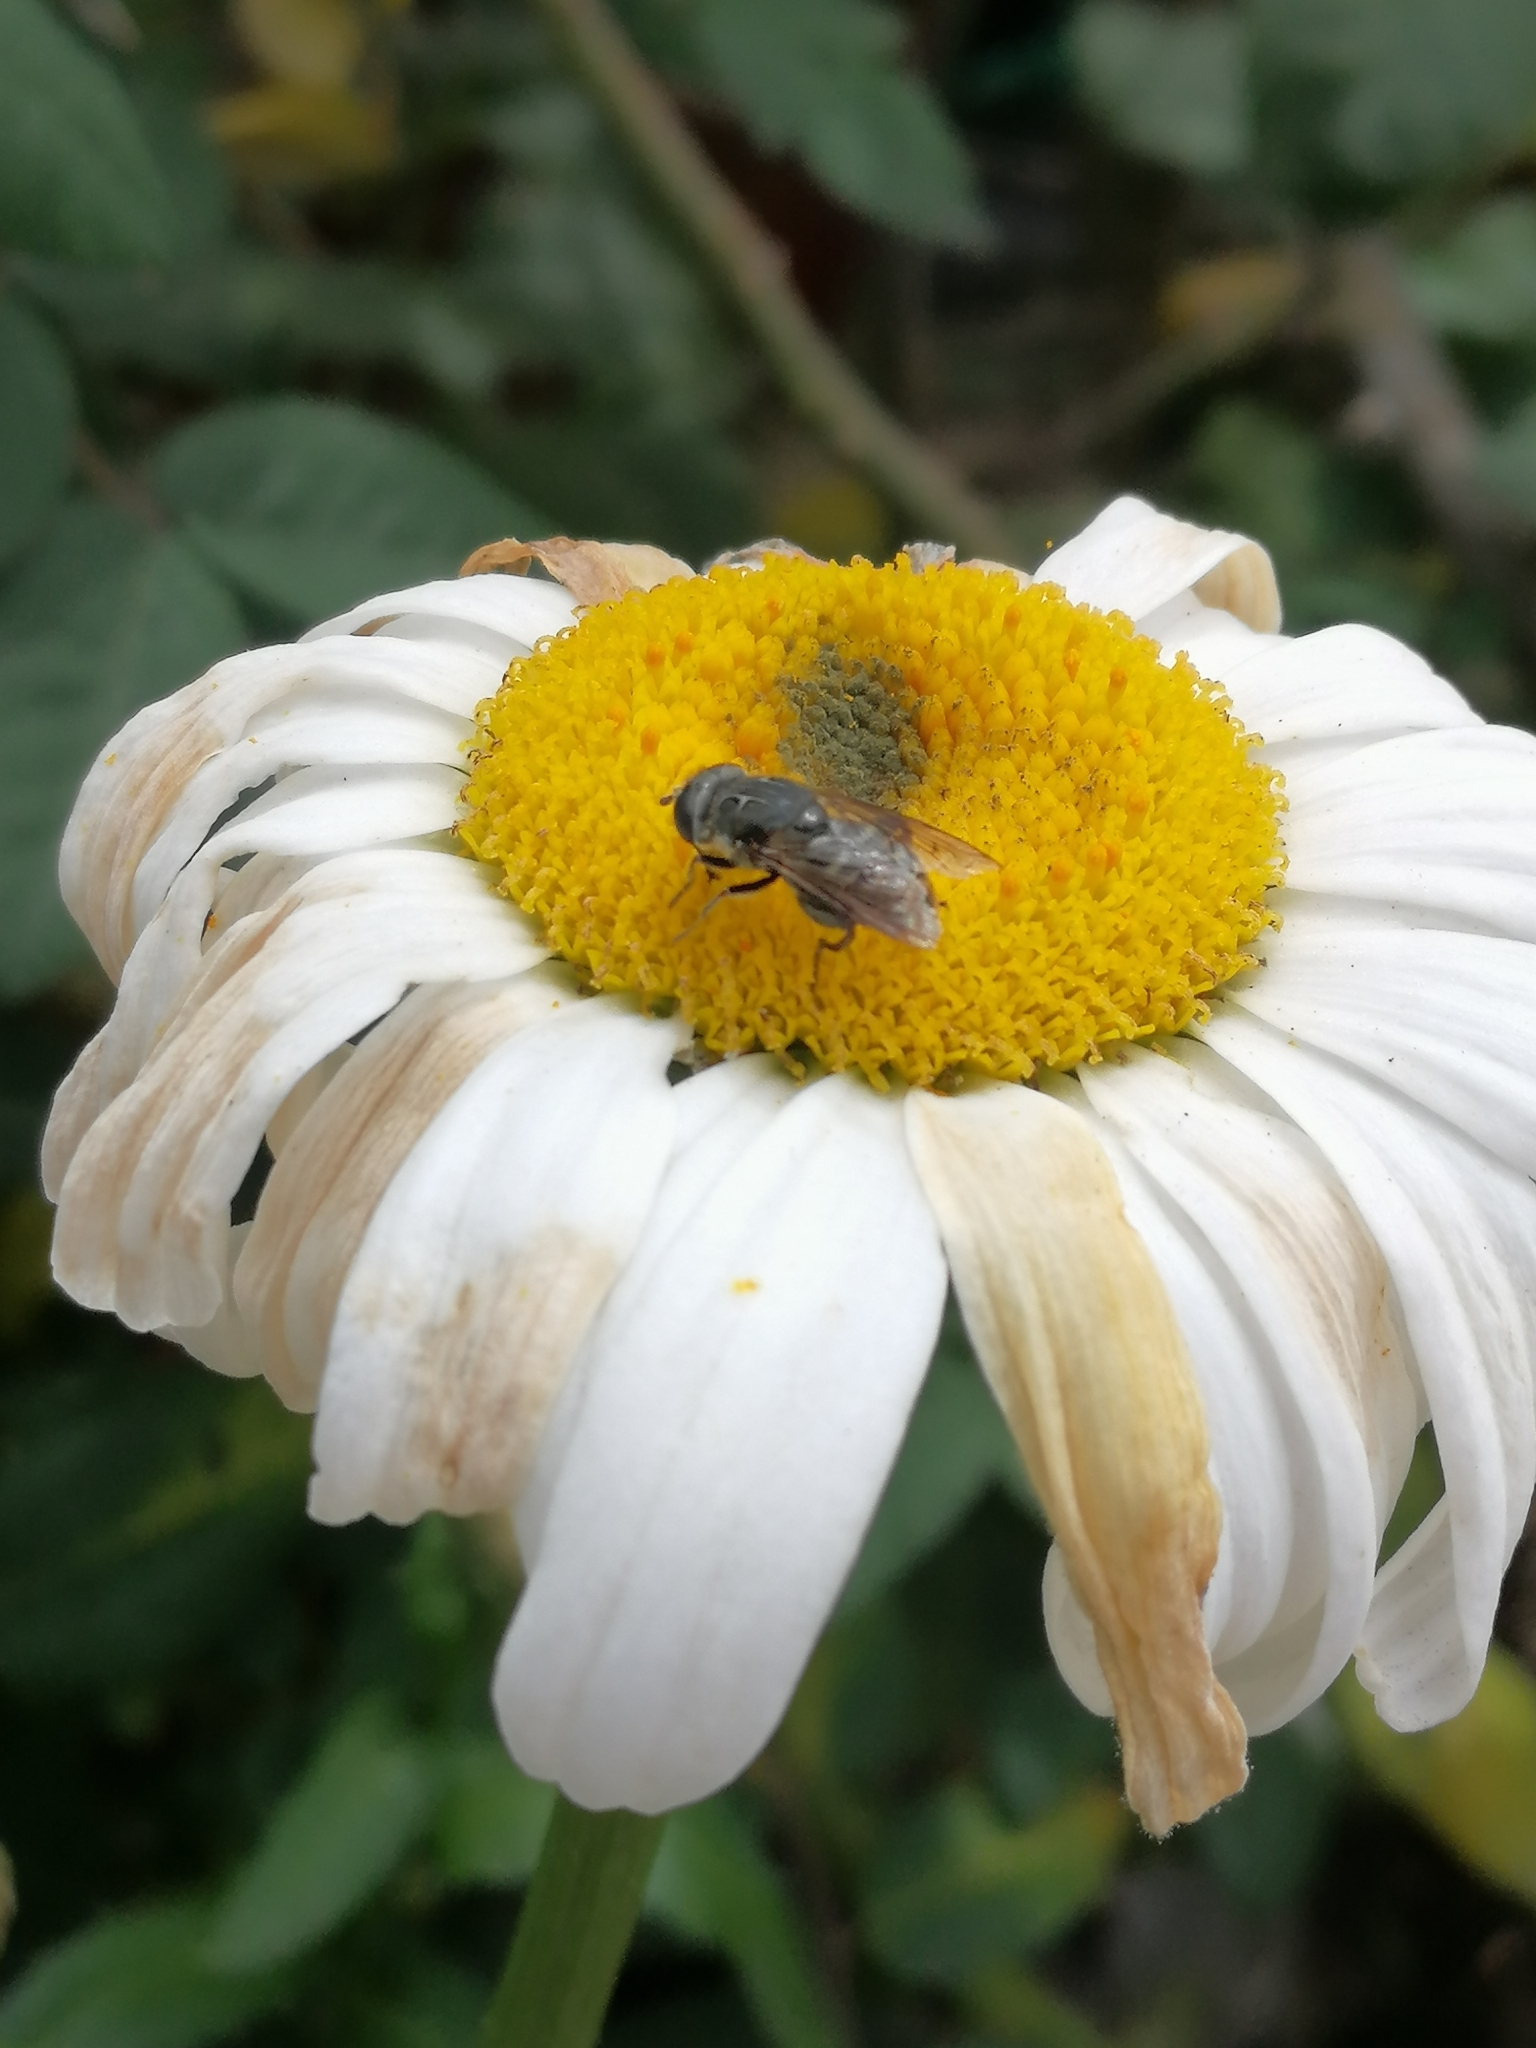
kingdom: Animalia
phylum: Arthropoda
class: Insecta
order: Diptera
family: Syrphidae
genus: Asemosyrphus
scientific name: Asemosyrphus
